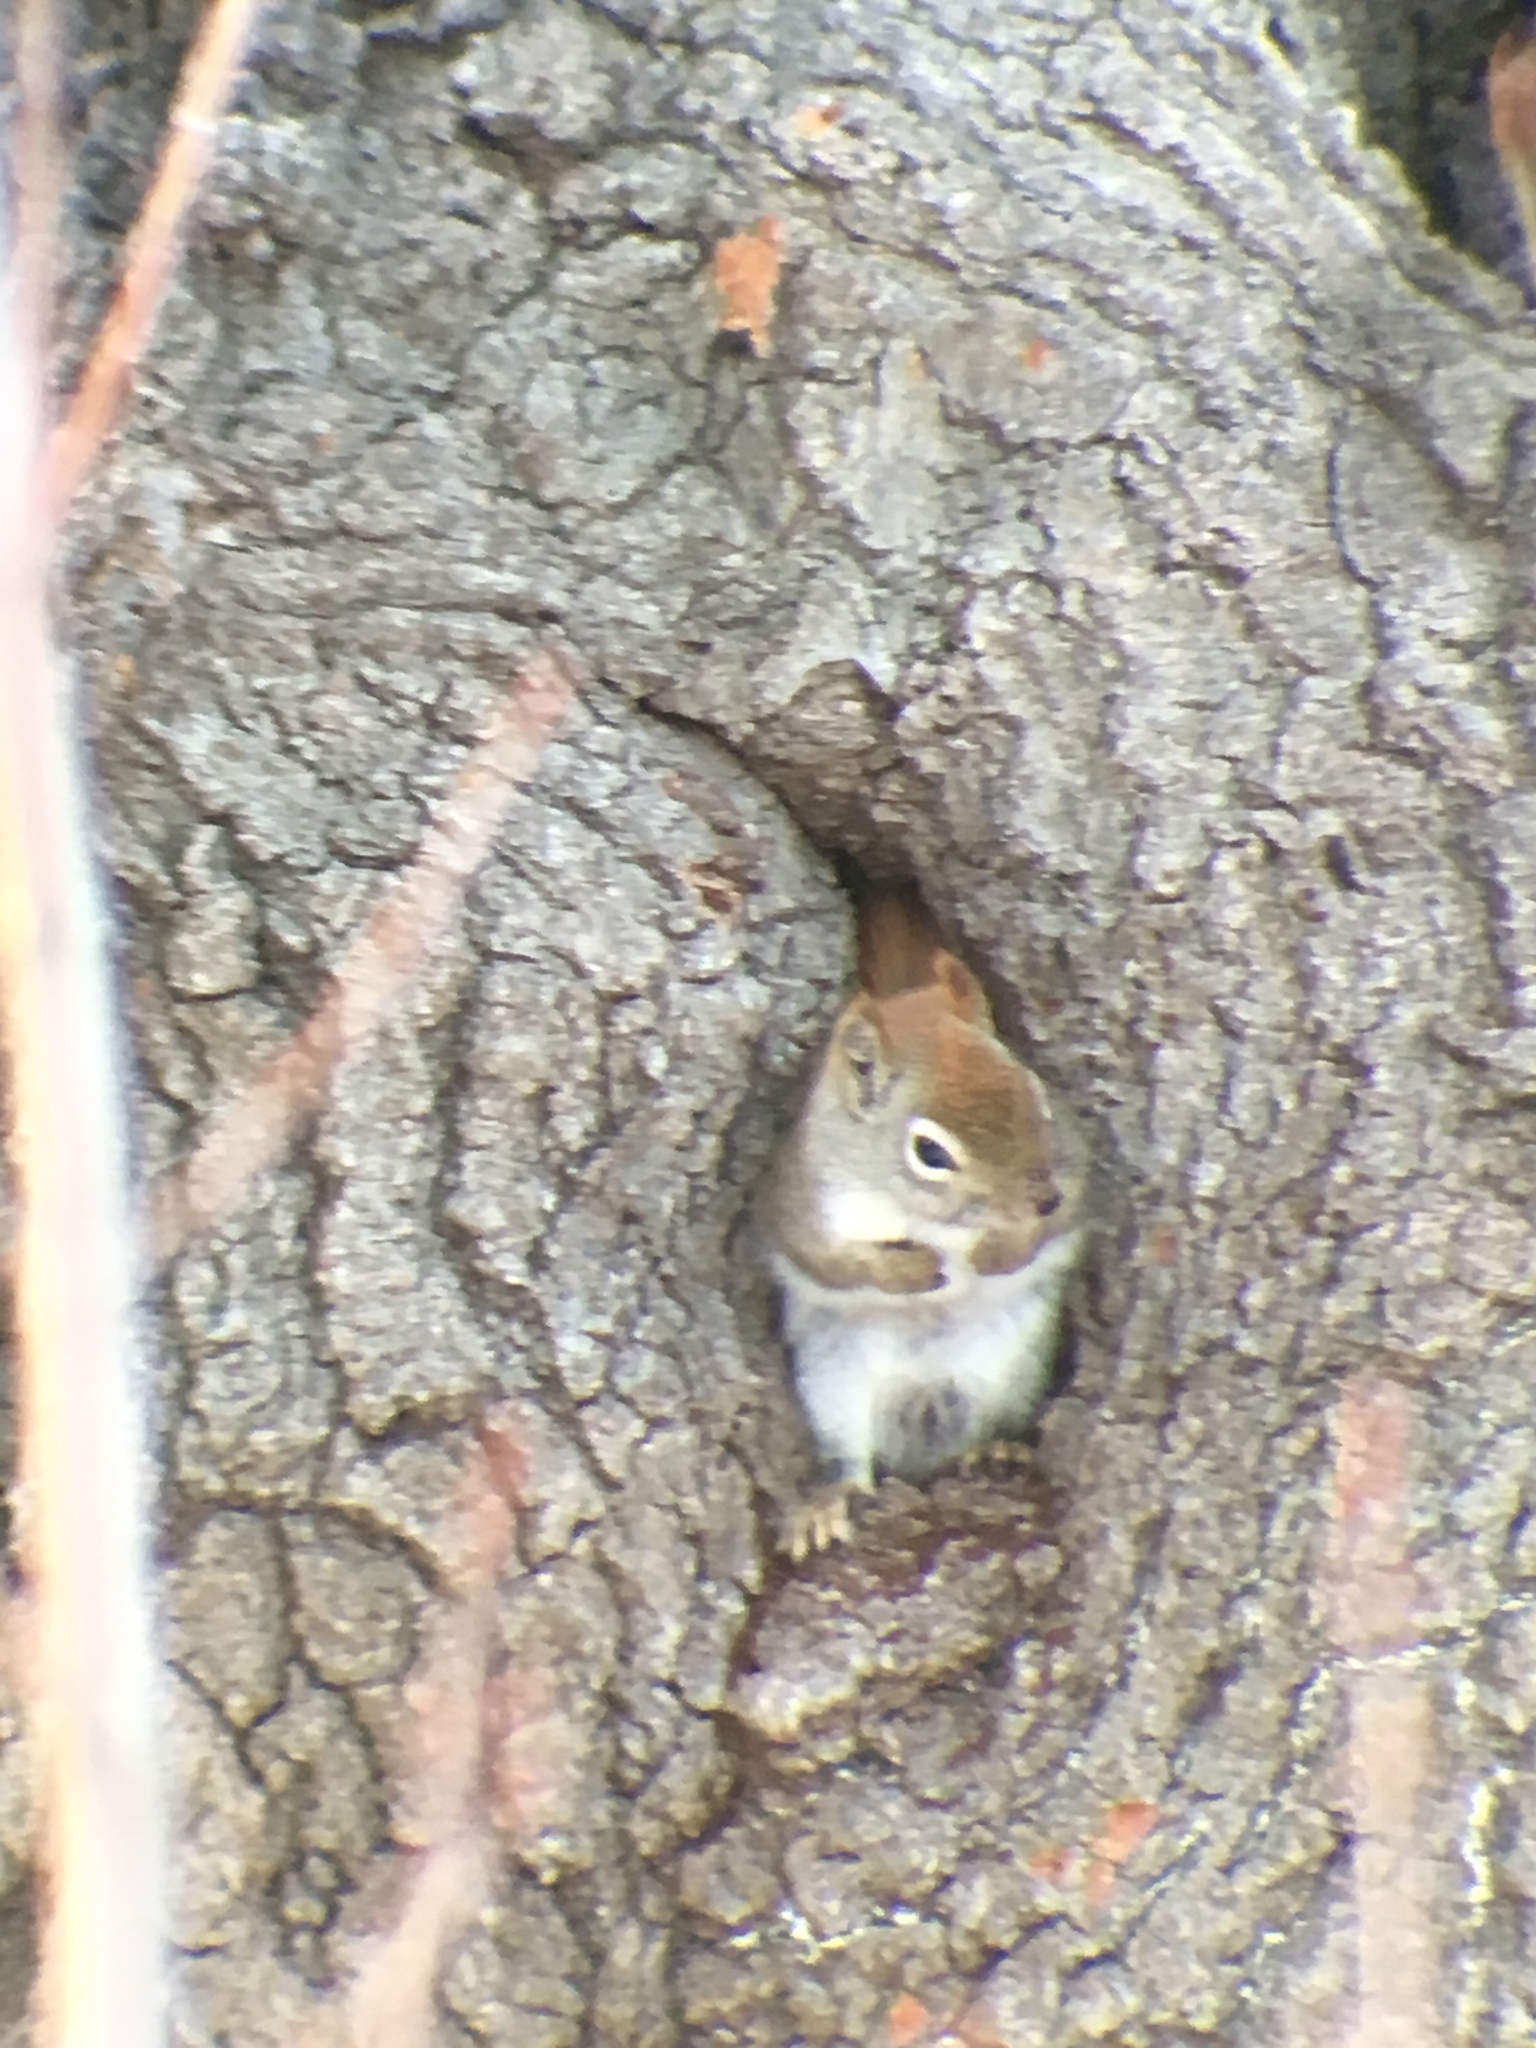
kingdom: Animalia
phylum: Chordata
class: Mammalia
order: Rodentia
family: Sciuridae
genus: Tamiasciurus
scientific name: Tamiasciurus hudsonicus
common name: Red squirrel
